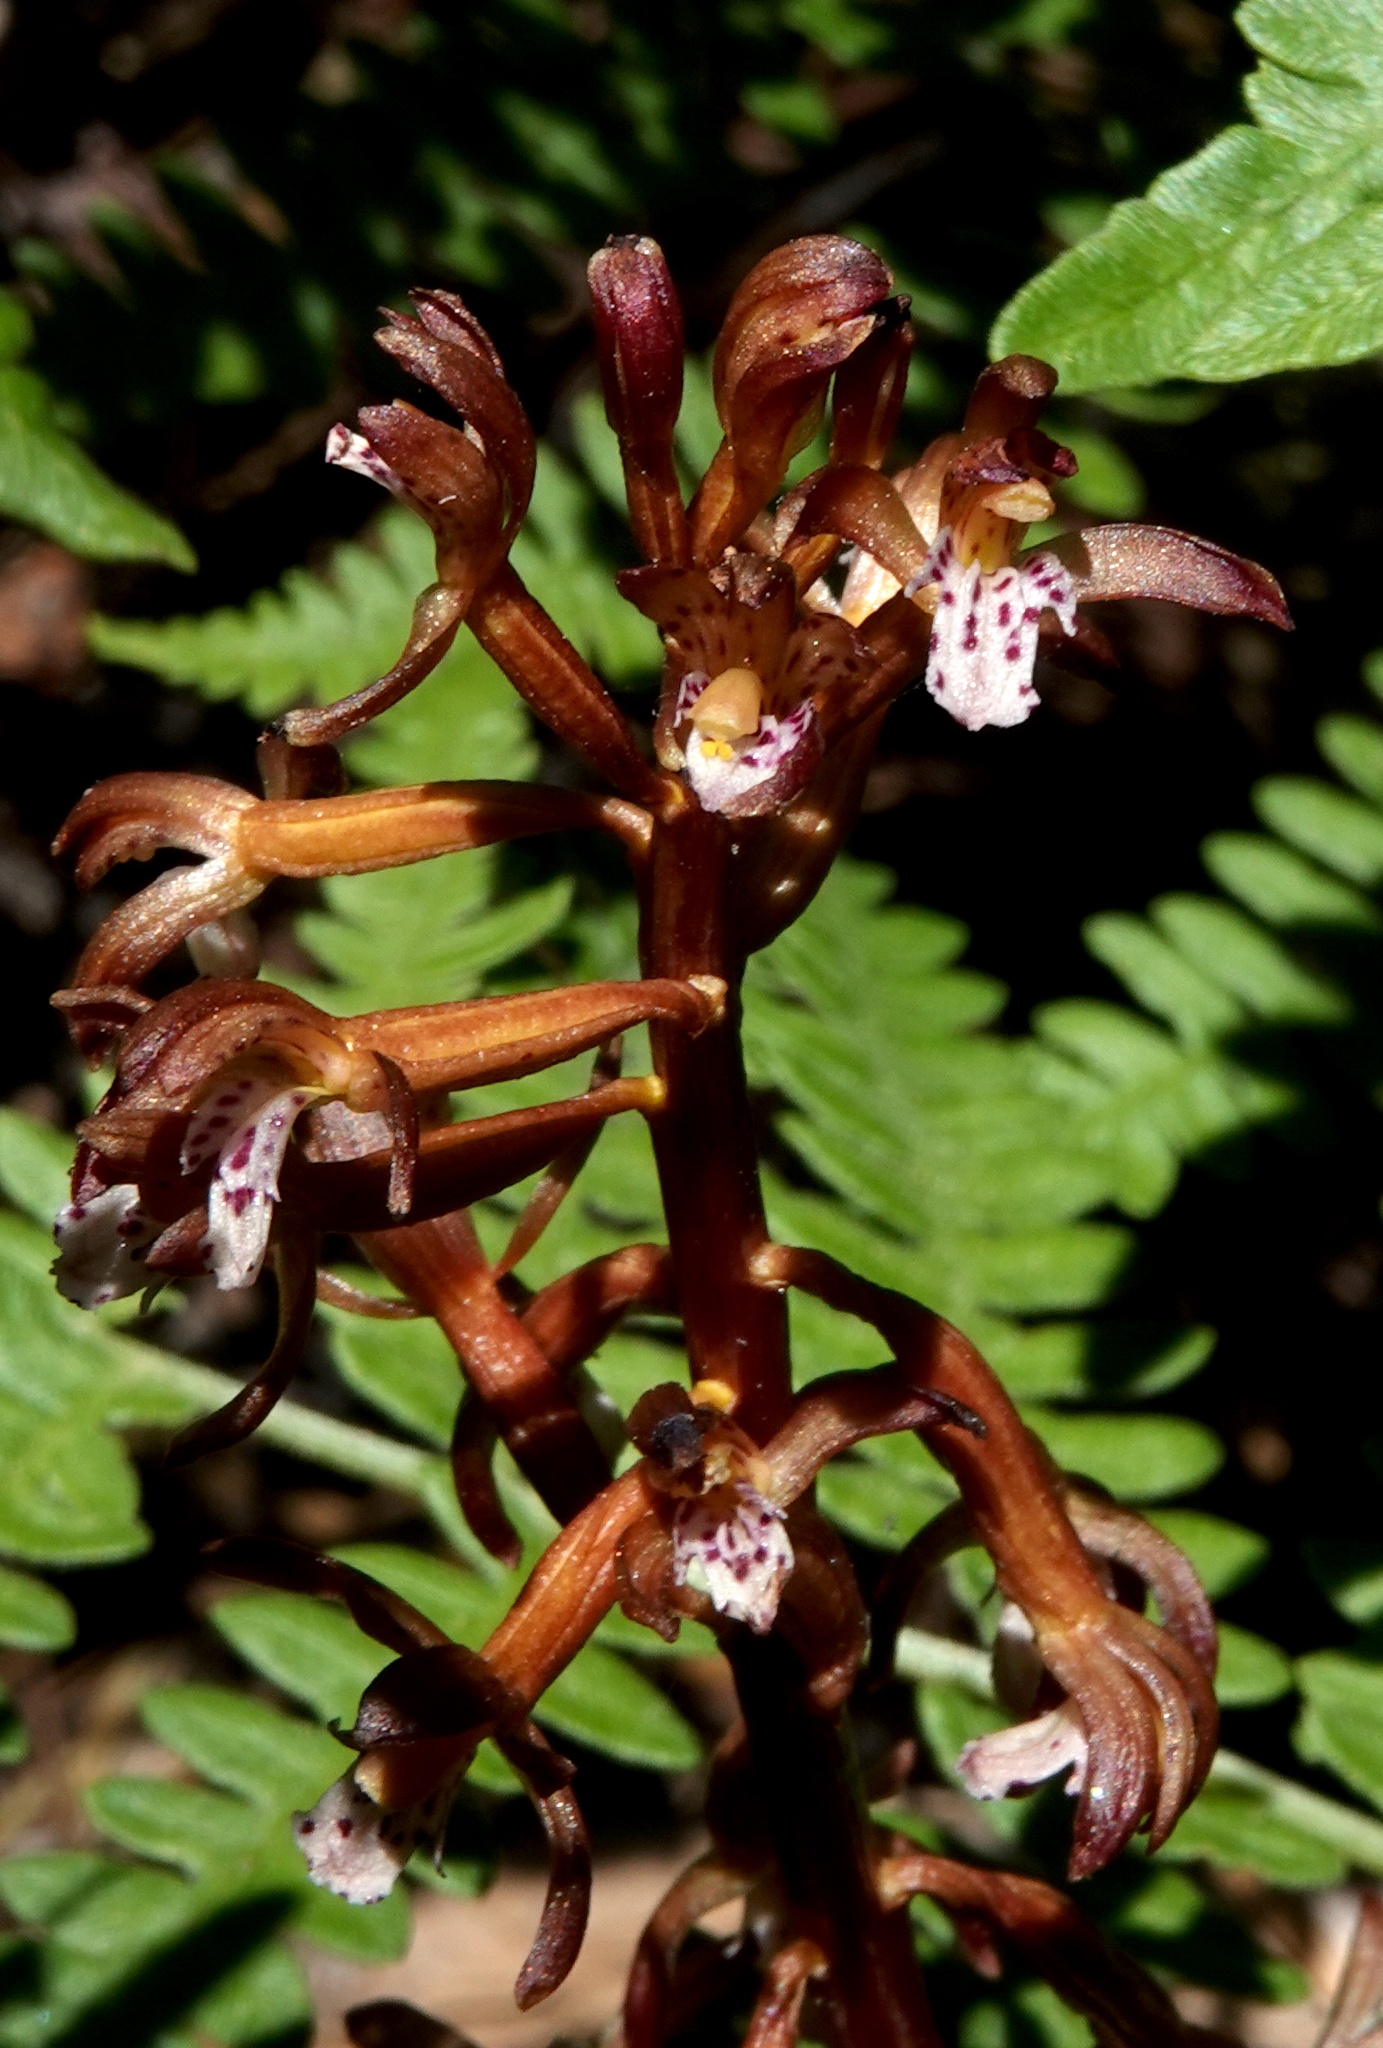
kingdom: Plantae
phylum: Tracheophyta
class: Liliopsida
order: Asparagales
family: Orchidaceae
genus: Corallorhiza
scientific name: Corallorhiza maculata
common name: Spotted coralroot
